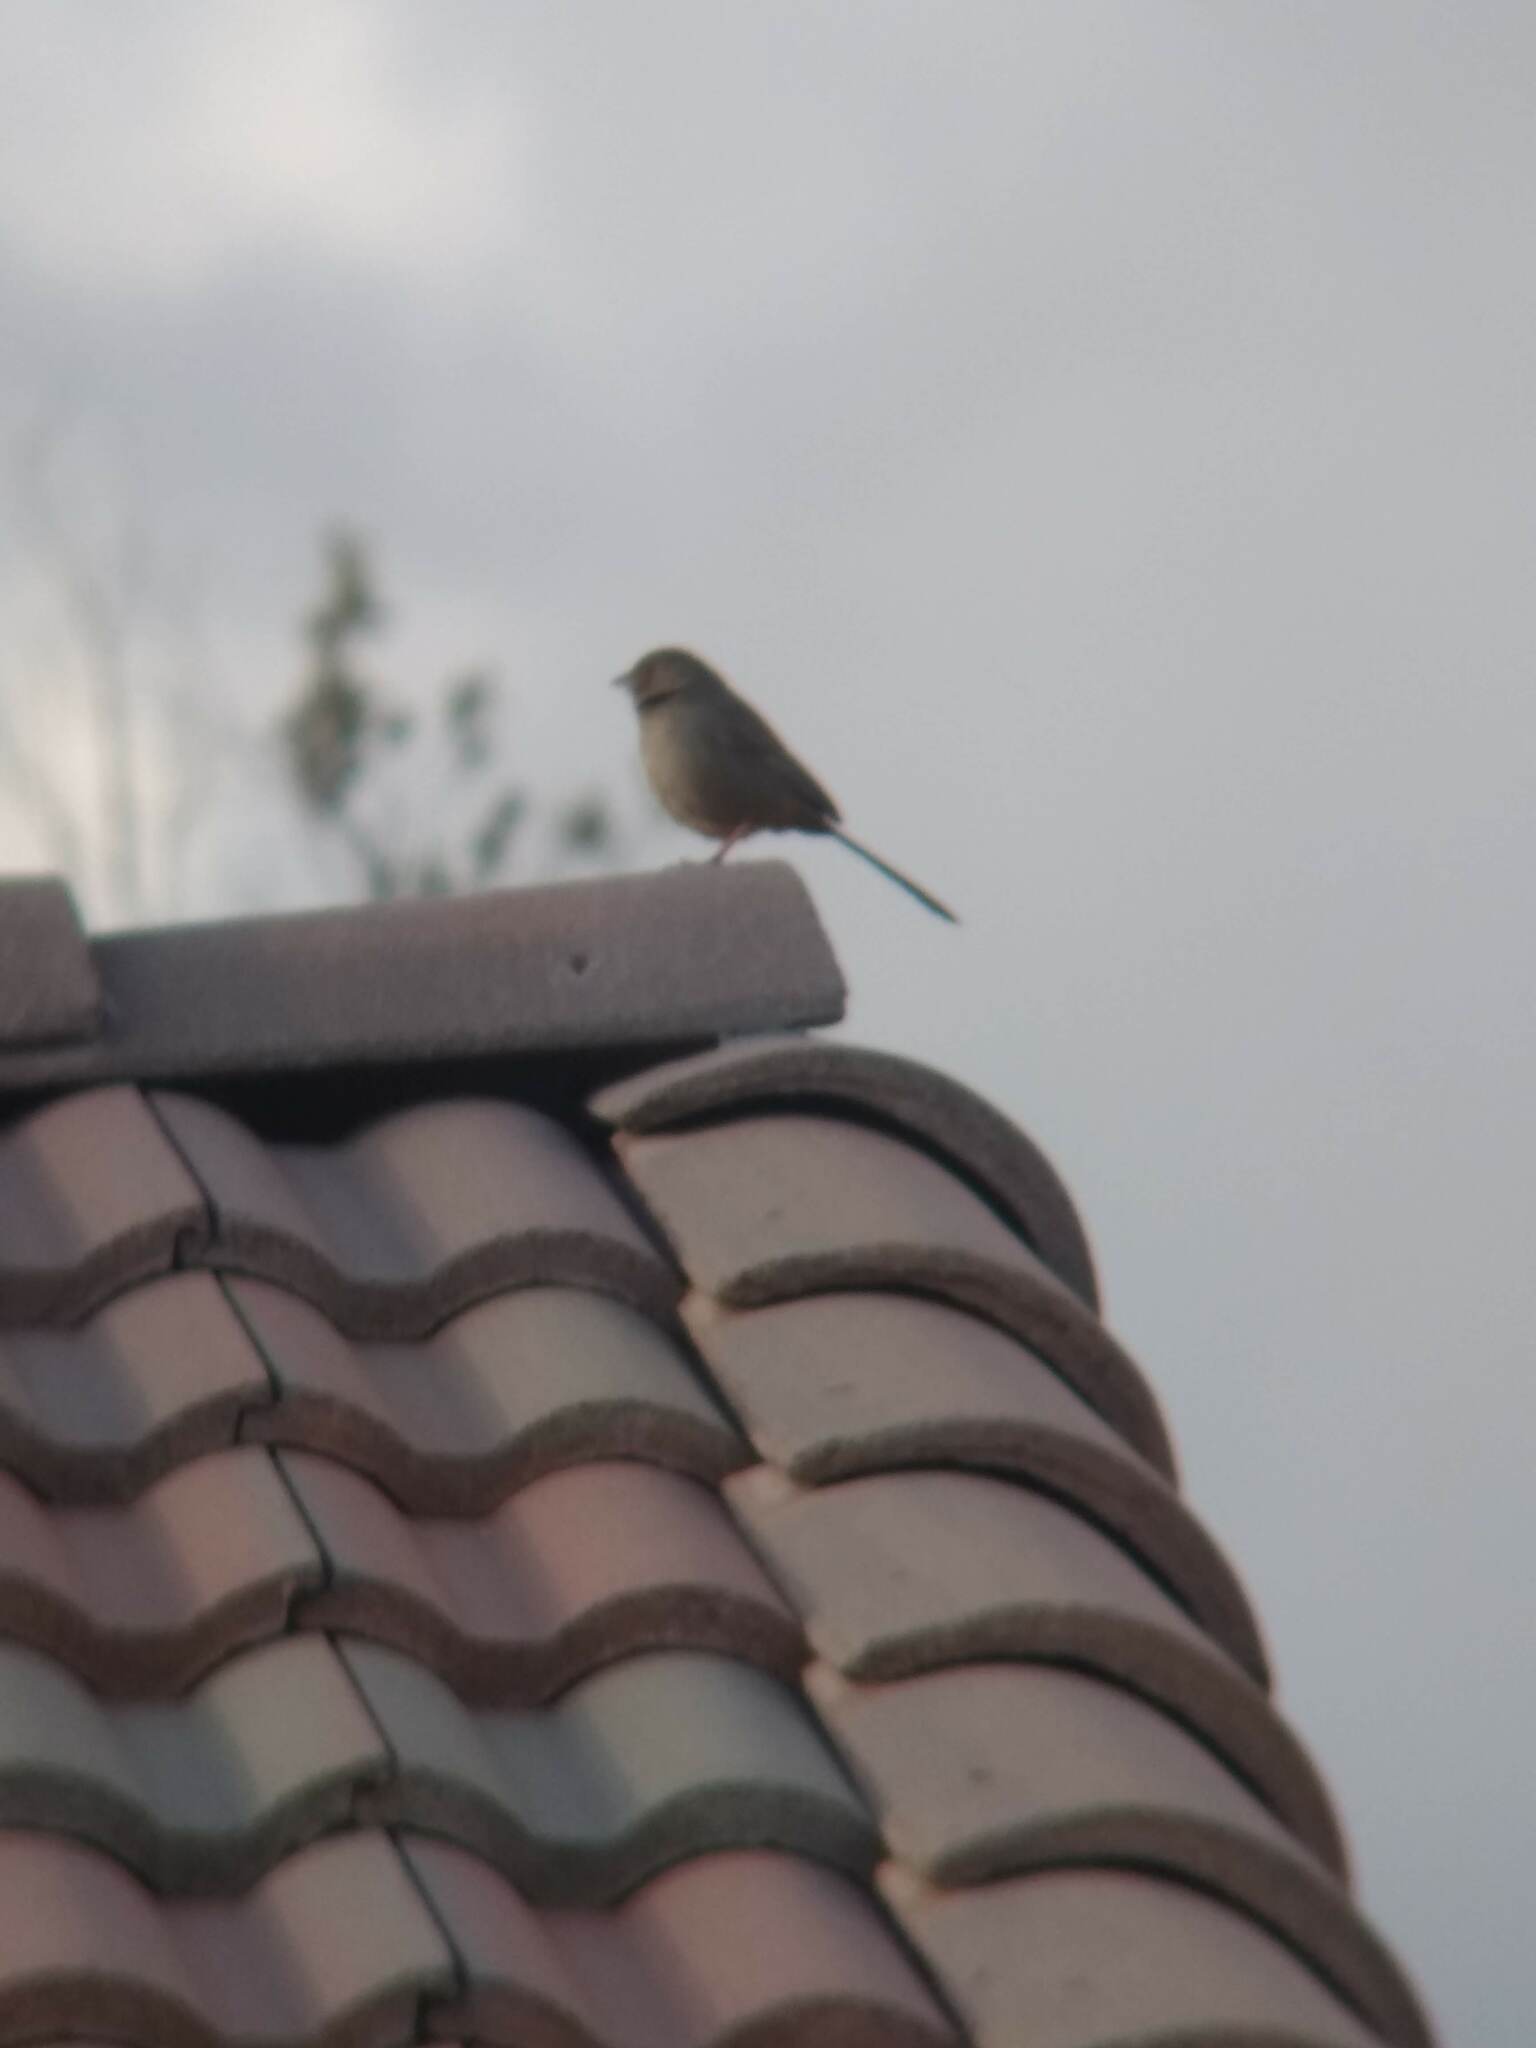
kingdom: Animalia
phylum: Chordata
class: Aves
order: Passeriformes
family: Passerellidae
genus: Melozone
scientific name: Melozone crissalis
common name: California towhee
